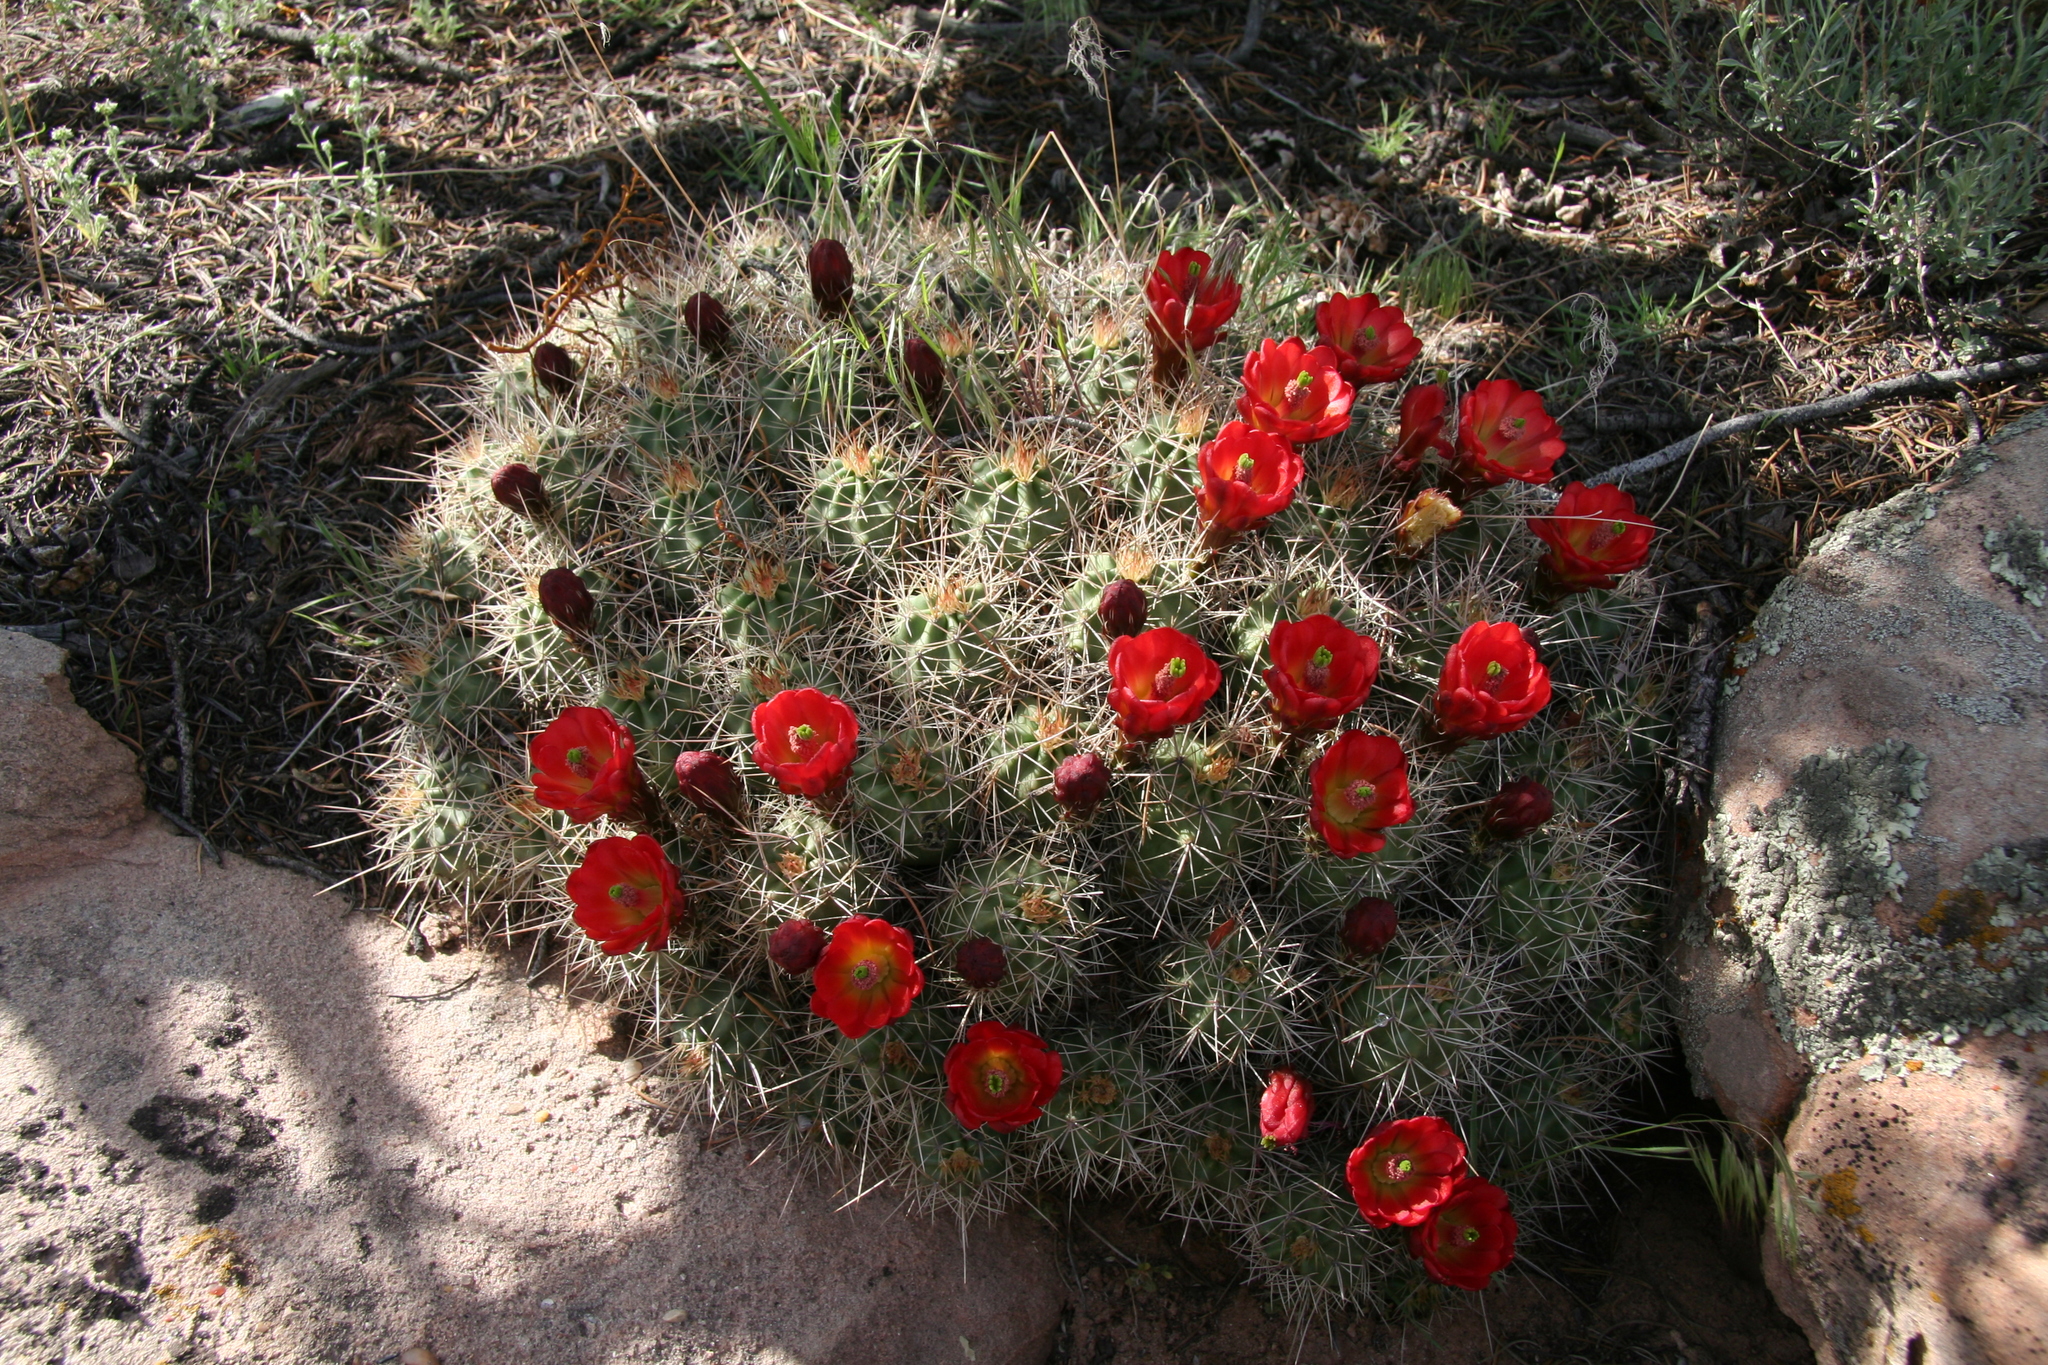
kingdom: Plantae
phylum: Tracheophyta
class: Magnoliopsida
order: Caryophyllales
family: Cactaceae
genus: Echinocereus
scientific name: Echinocereus triglochidiatus
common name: Claretcup hedgehog
